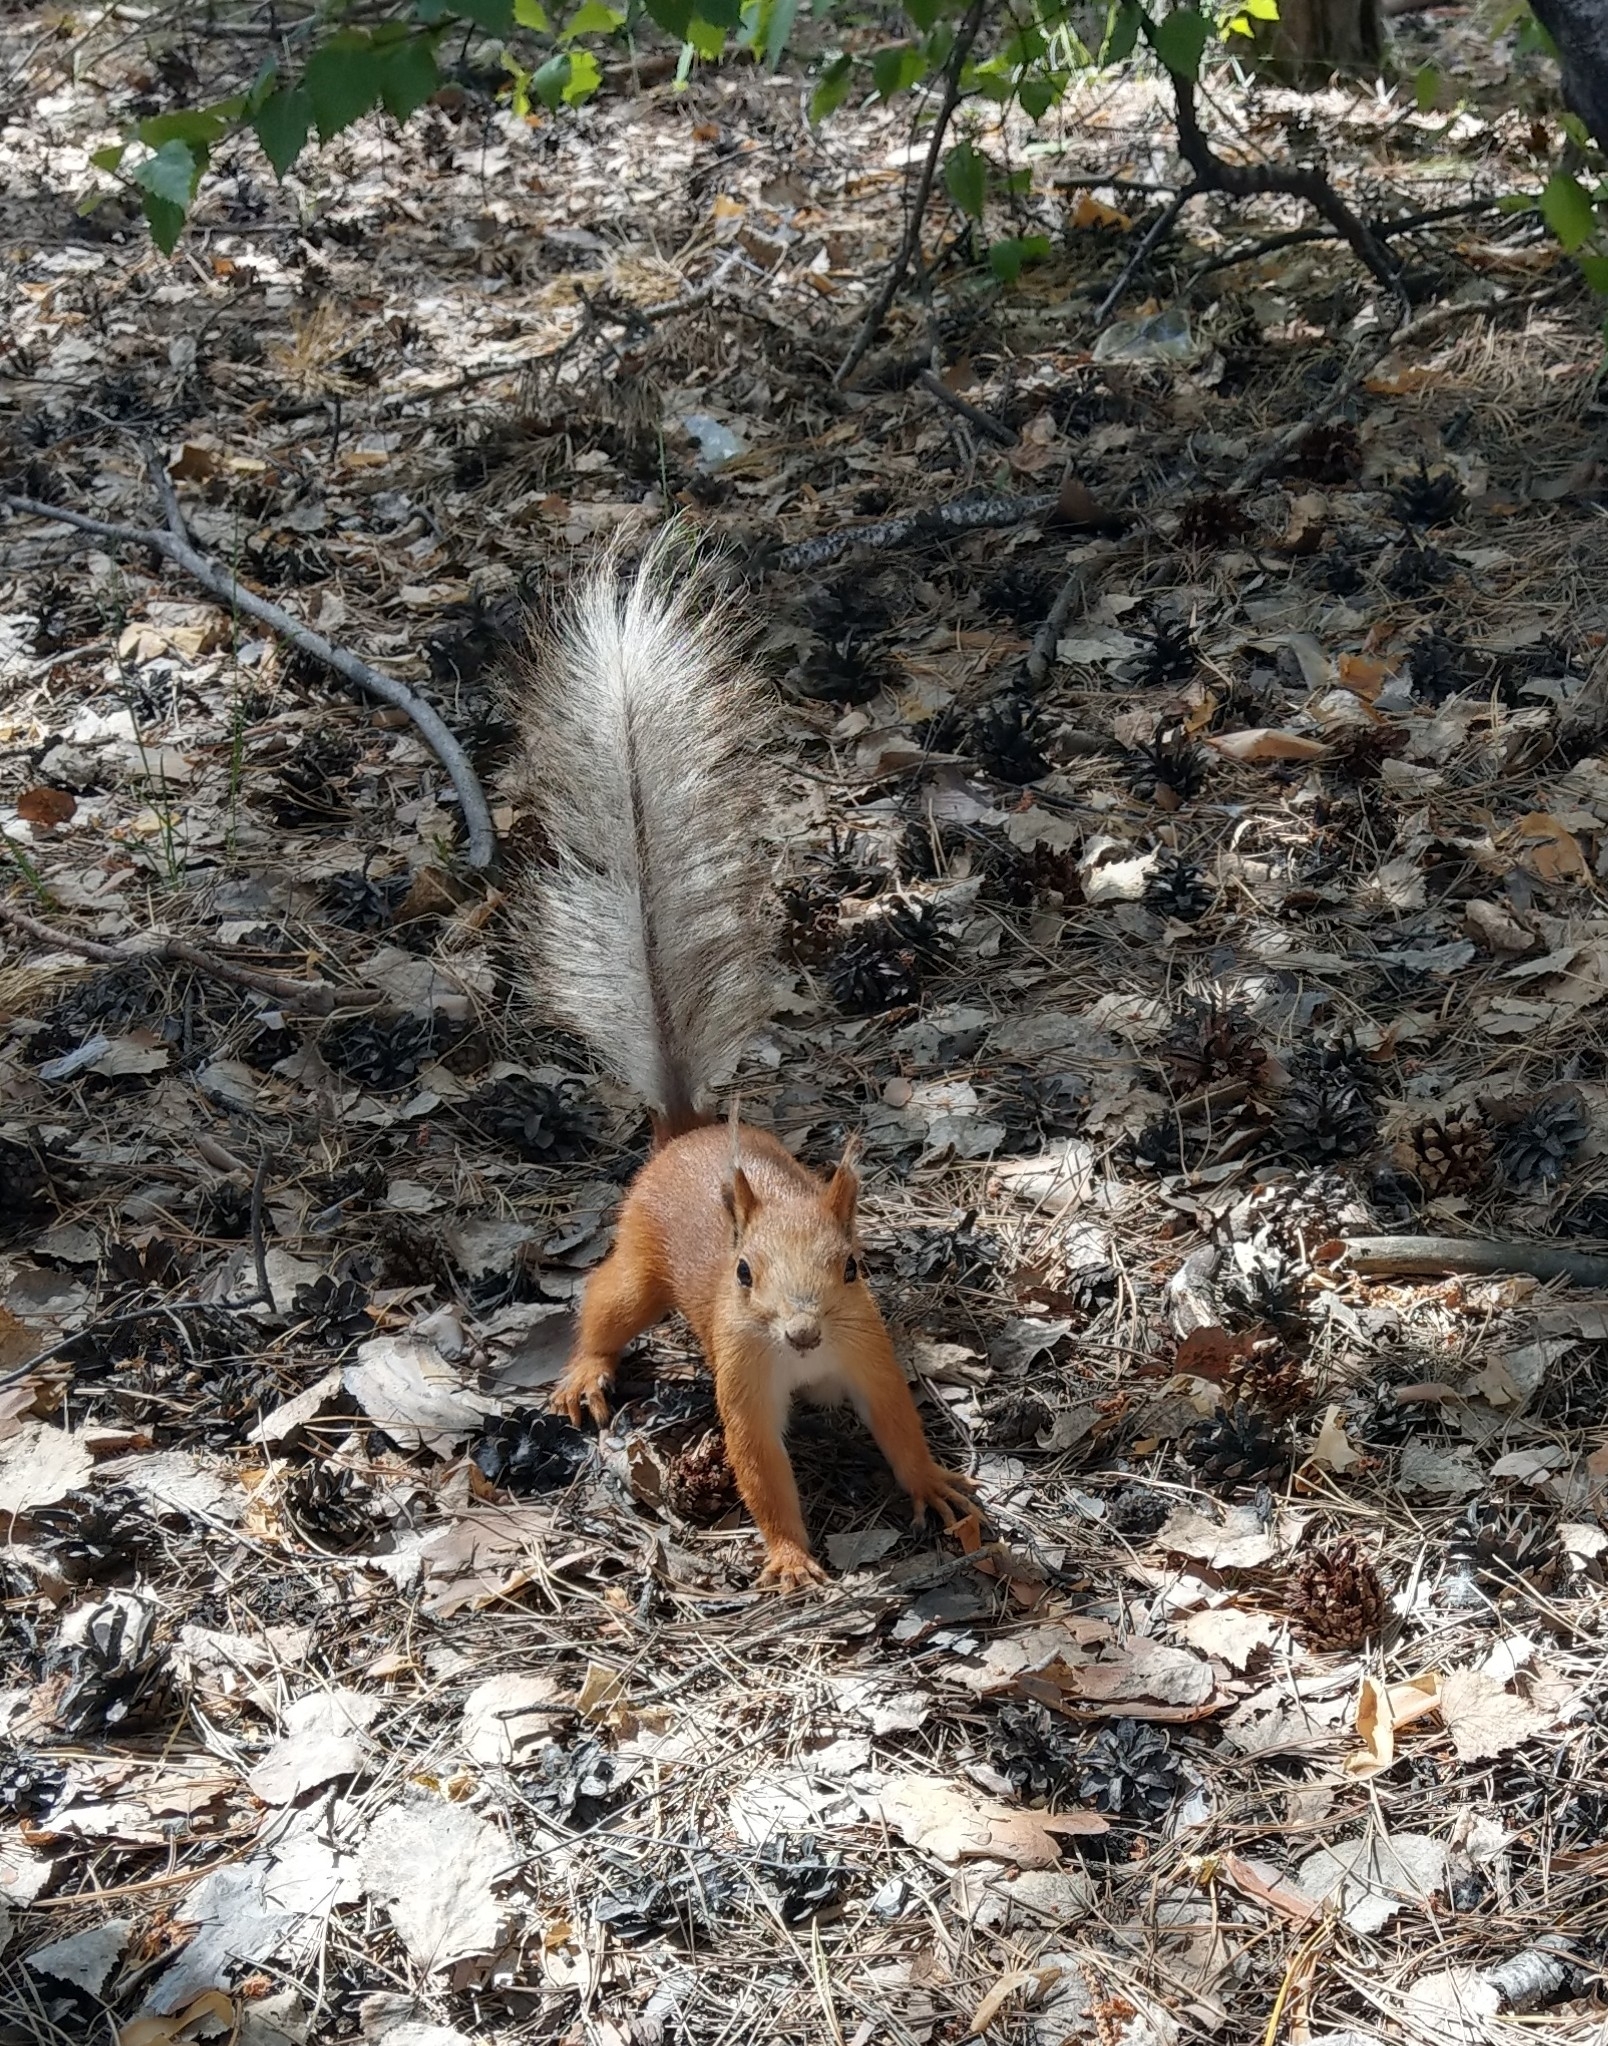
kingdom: Animalia
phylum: Chordata
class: Mammalia
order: Rodentia
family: Sciuridae
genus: Sciurus
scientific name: Sciurus vulgaris
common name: Eurasian red squirrel
